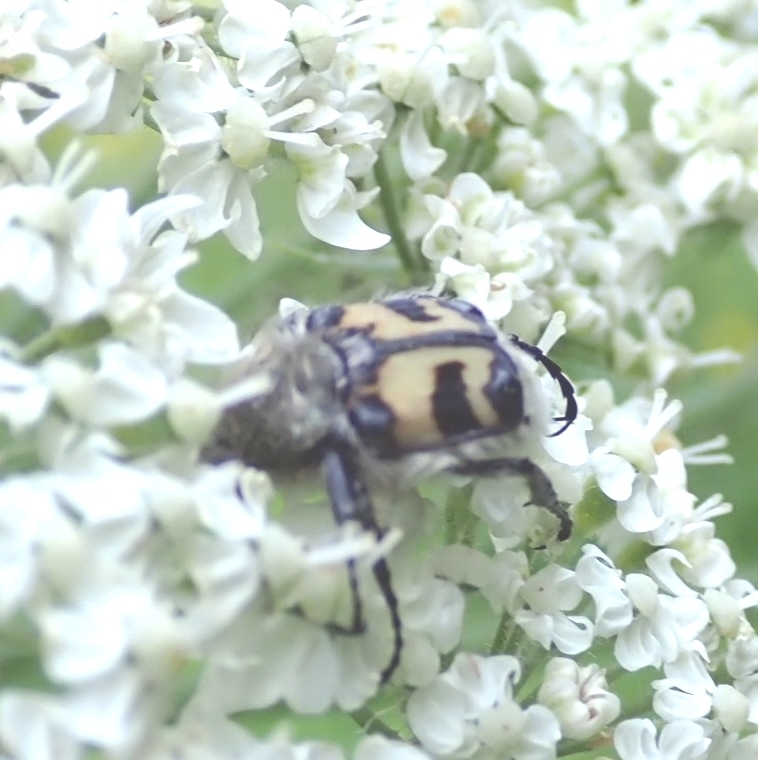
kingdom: Animalia
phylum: Arthropoda
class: Insecta
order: Coleoptera
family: Scarabaeidae
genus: Trichius
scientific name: Trichius fasciatus
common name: Bee beetle
